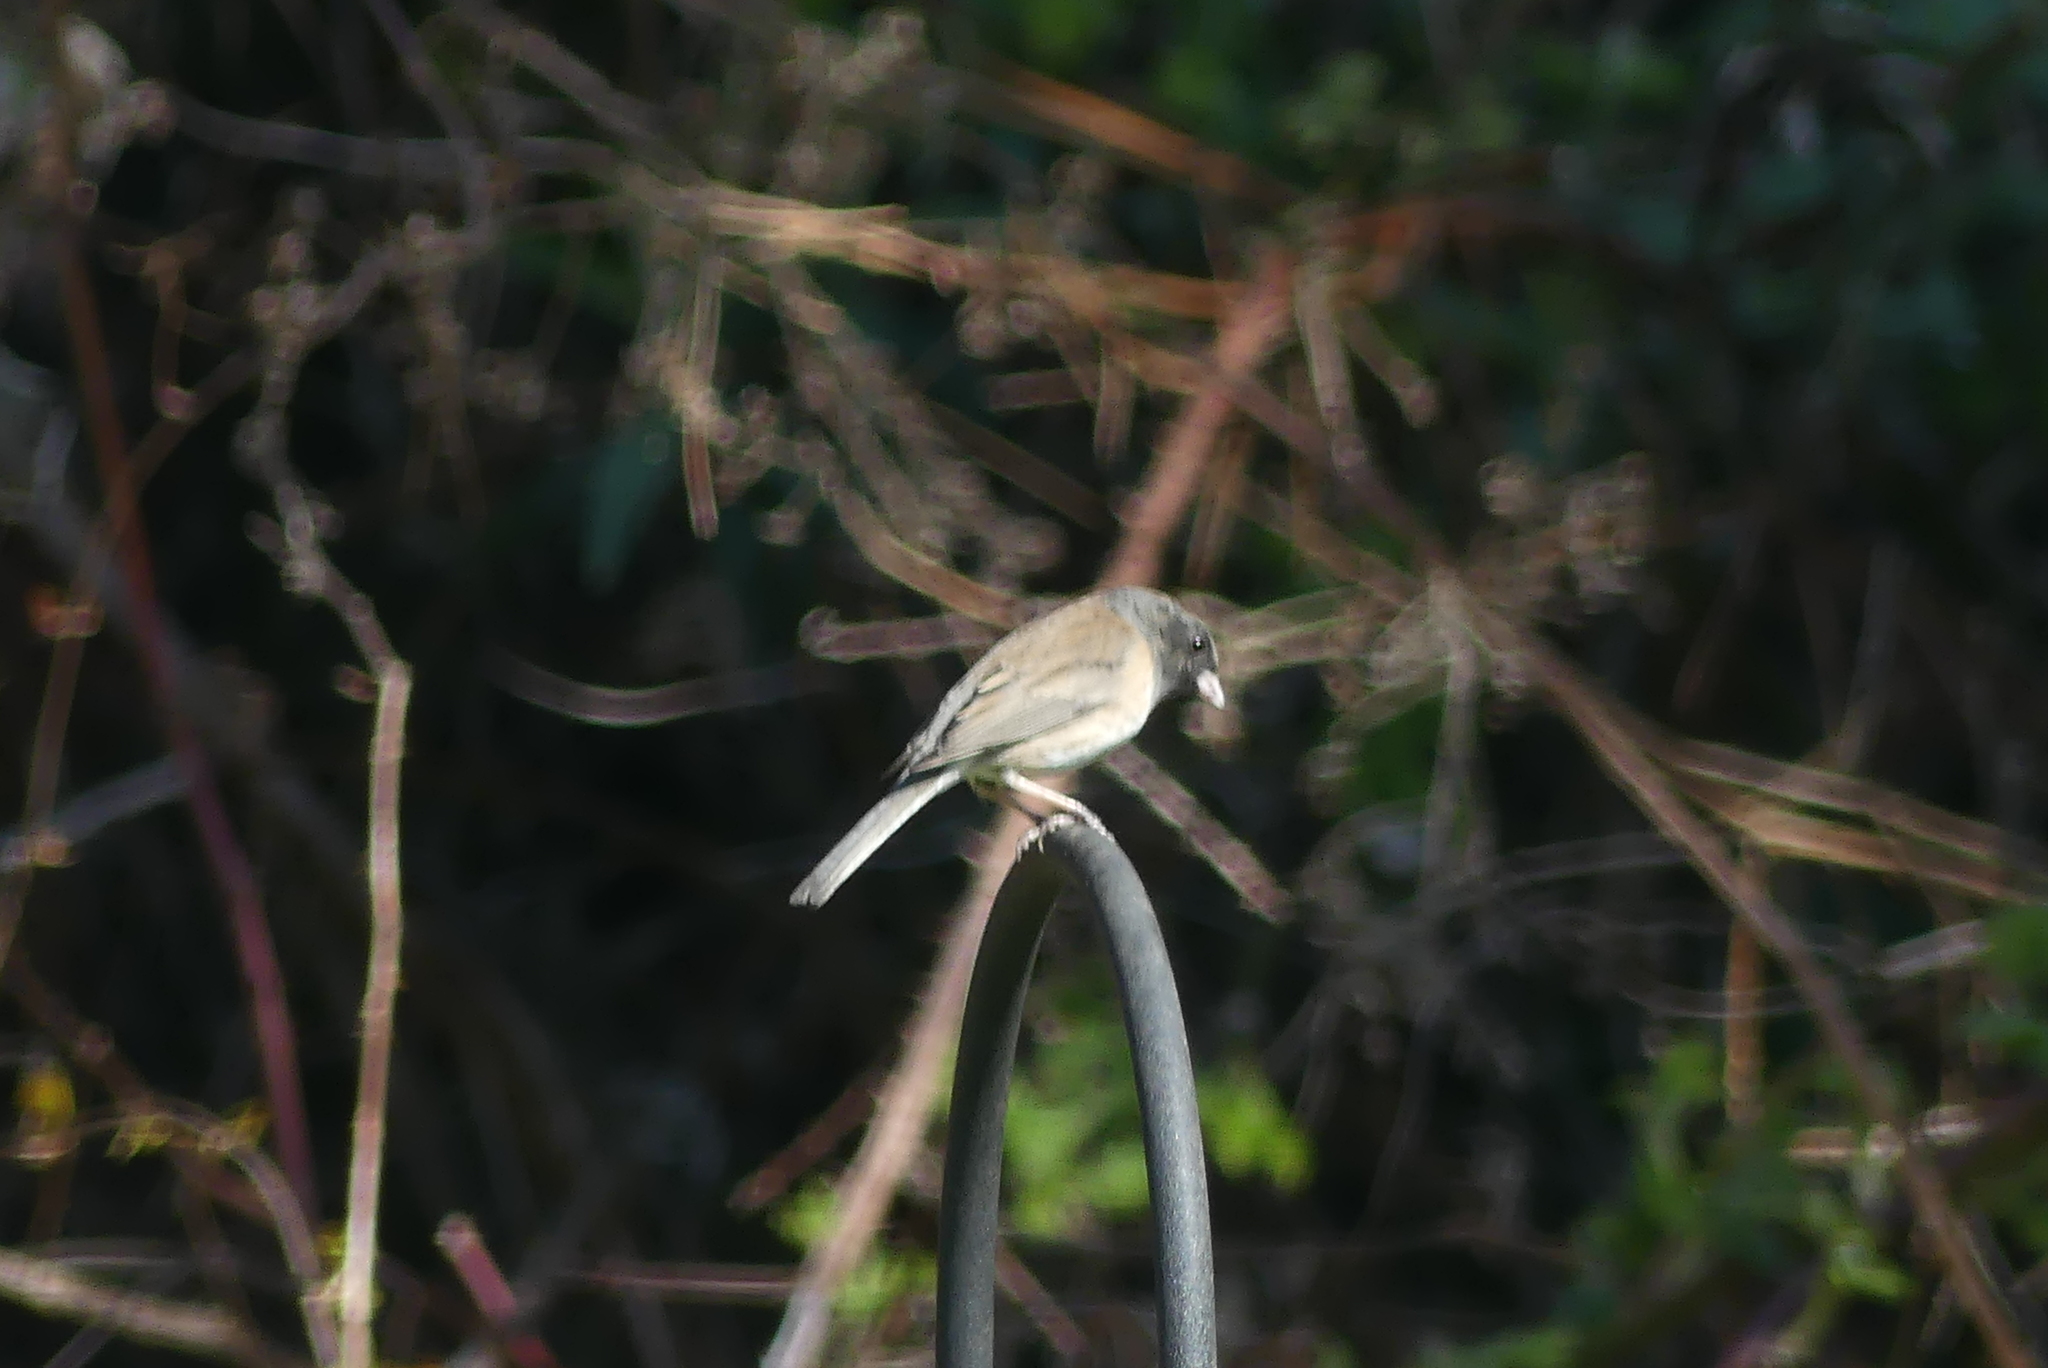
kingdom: Animalia
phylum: Chordata
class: Aves
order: Passeriformes
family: Passerellidae
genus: Junco
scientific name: Junco hyemalis
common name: Dark-eyed junco
